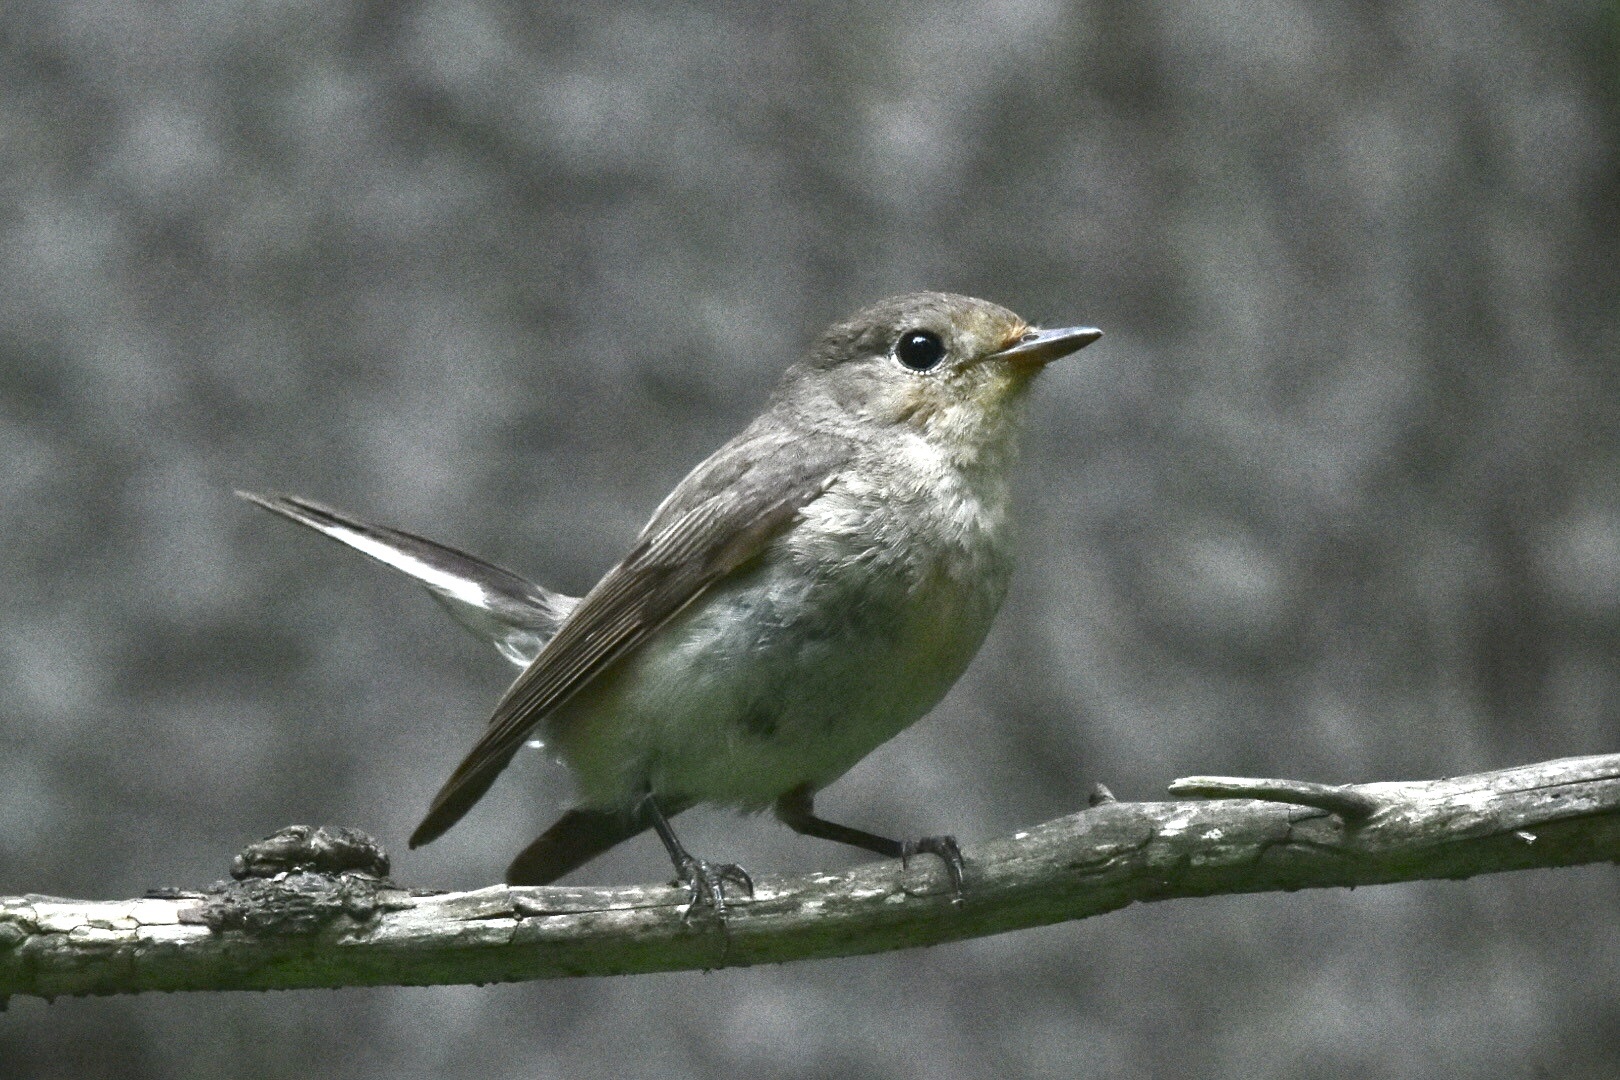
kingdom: Animalia
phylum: Chordata
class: Aves
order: Passeriformes
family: Muscicapidae
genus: Ficedula
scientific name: Ficedula parva
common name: Red-breasted flycatcher
